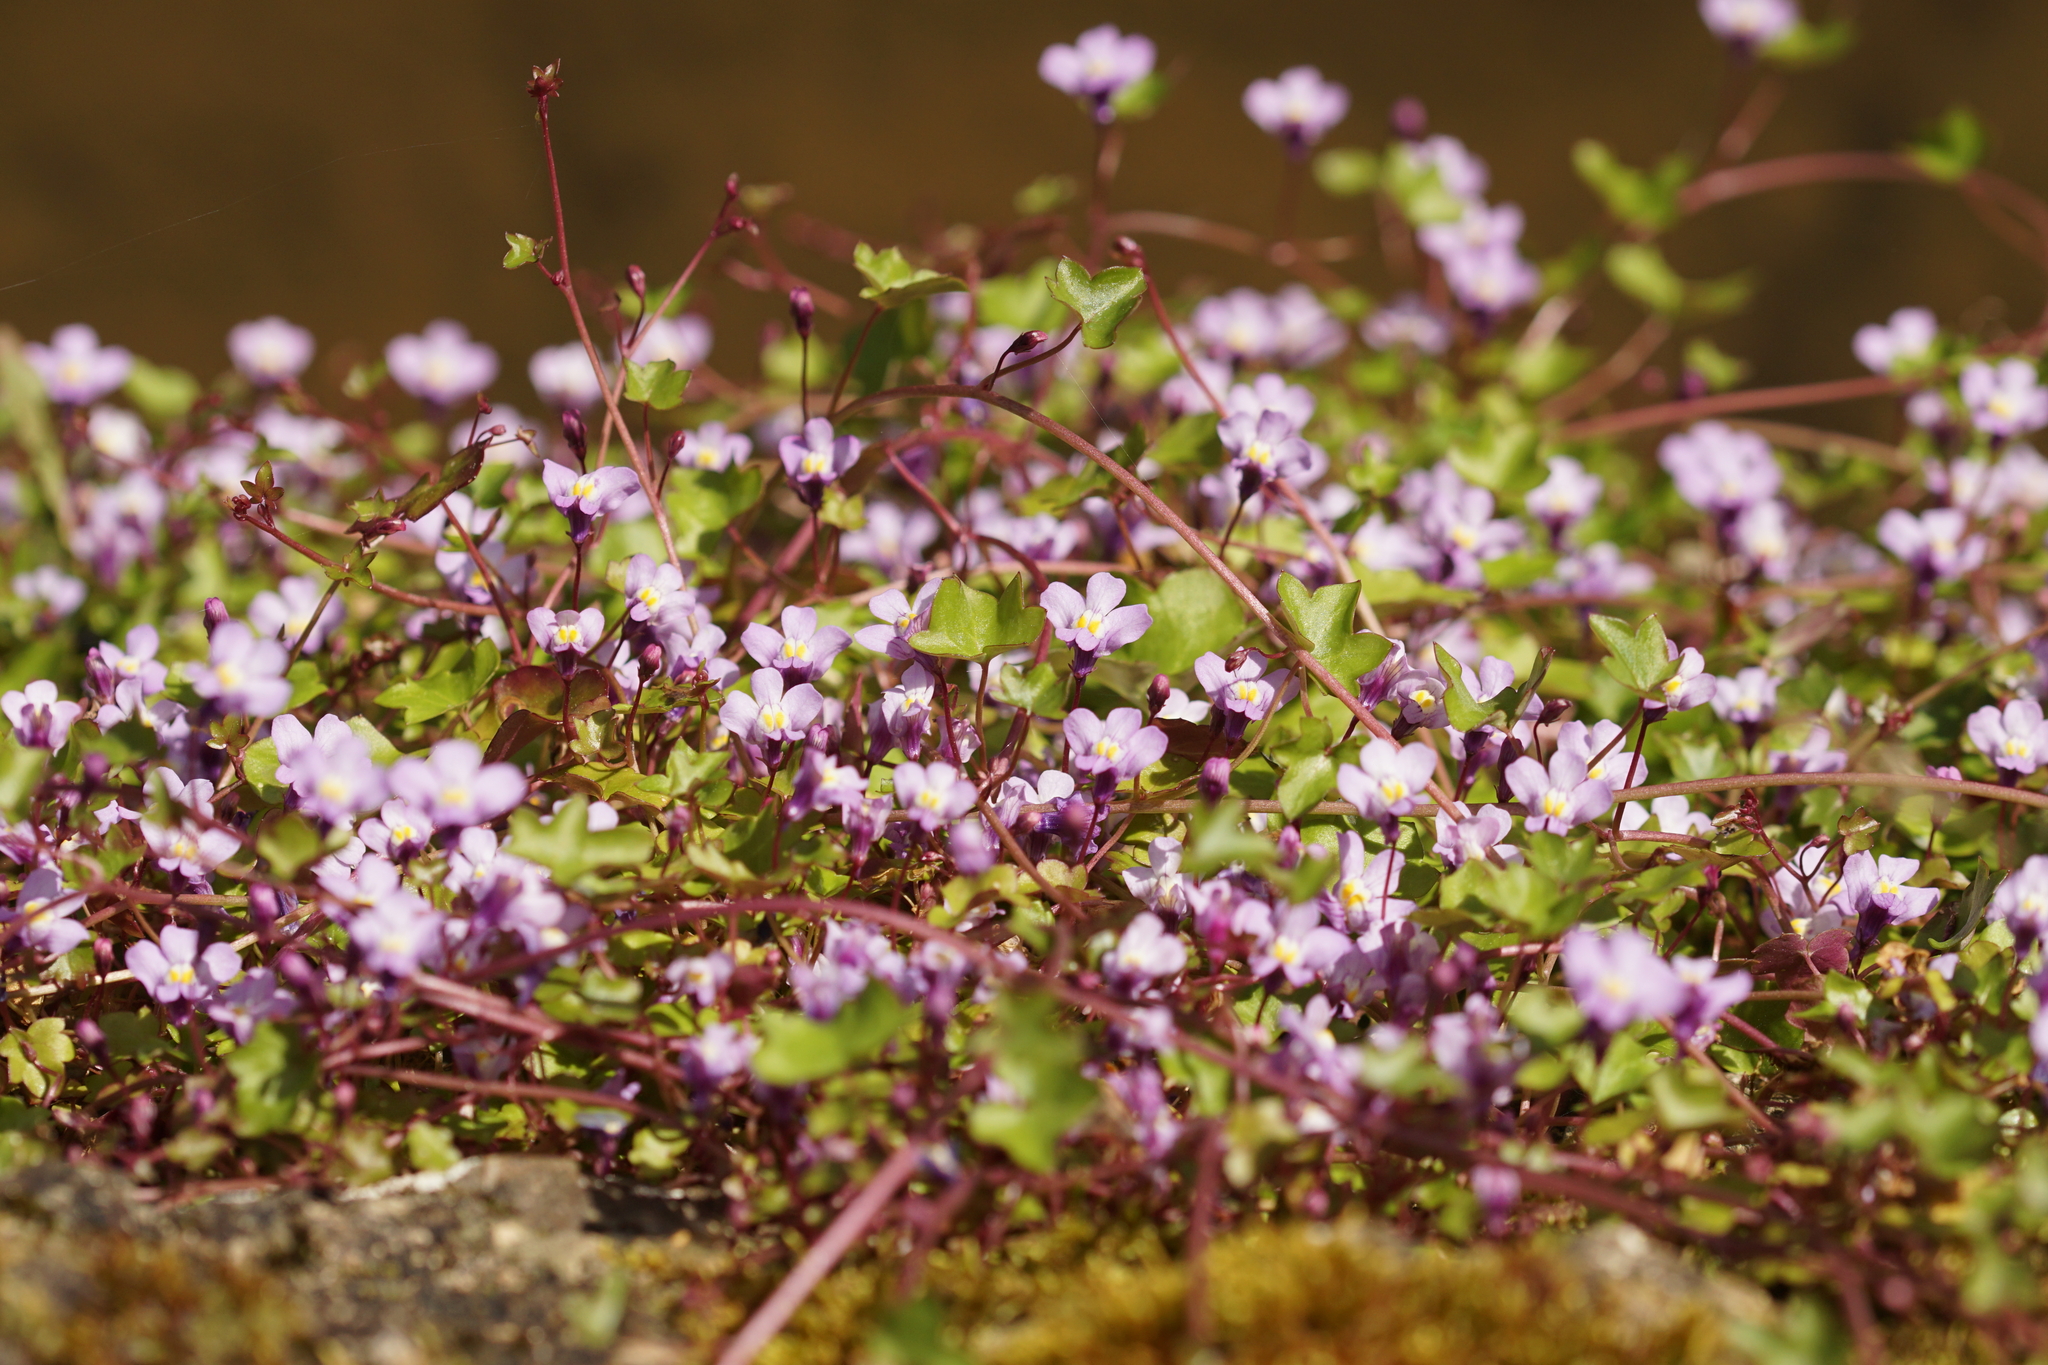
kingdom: Plantae
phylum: Tracheophyta
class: Magnoliopsida
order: Lamiales
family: Plantaginaceae
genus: Cymbalaria
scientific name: Cymbalaria muralis
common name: Ivy-leaved toadflax
